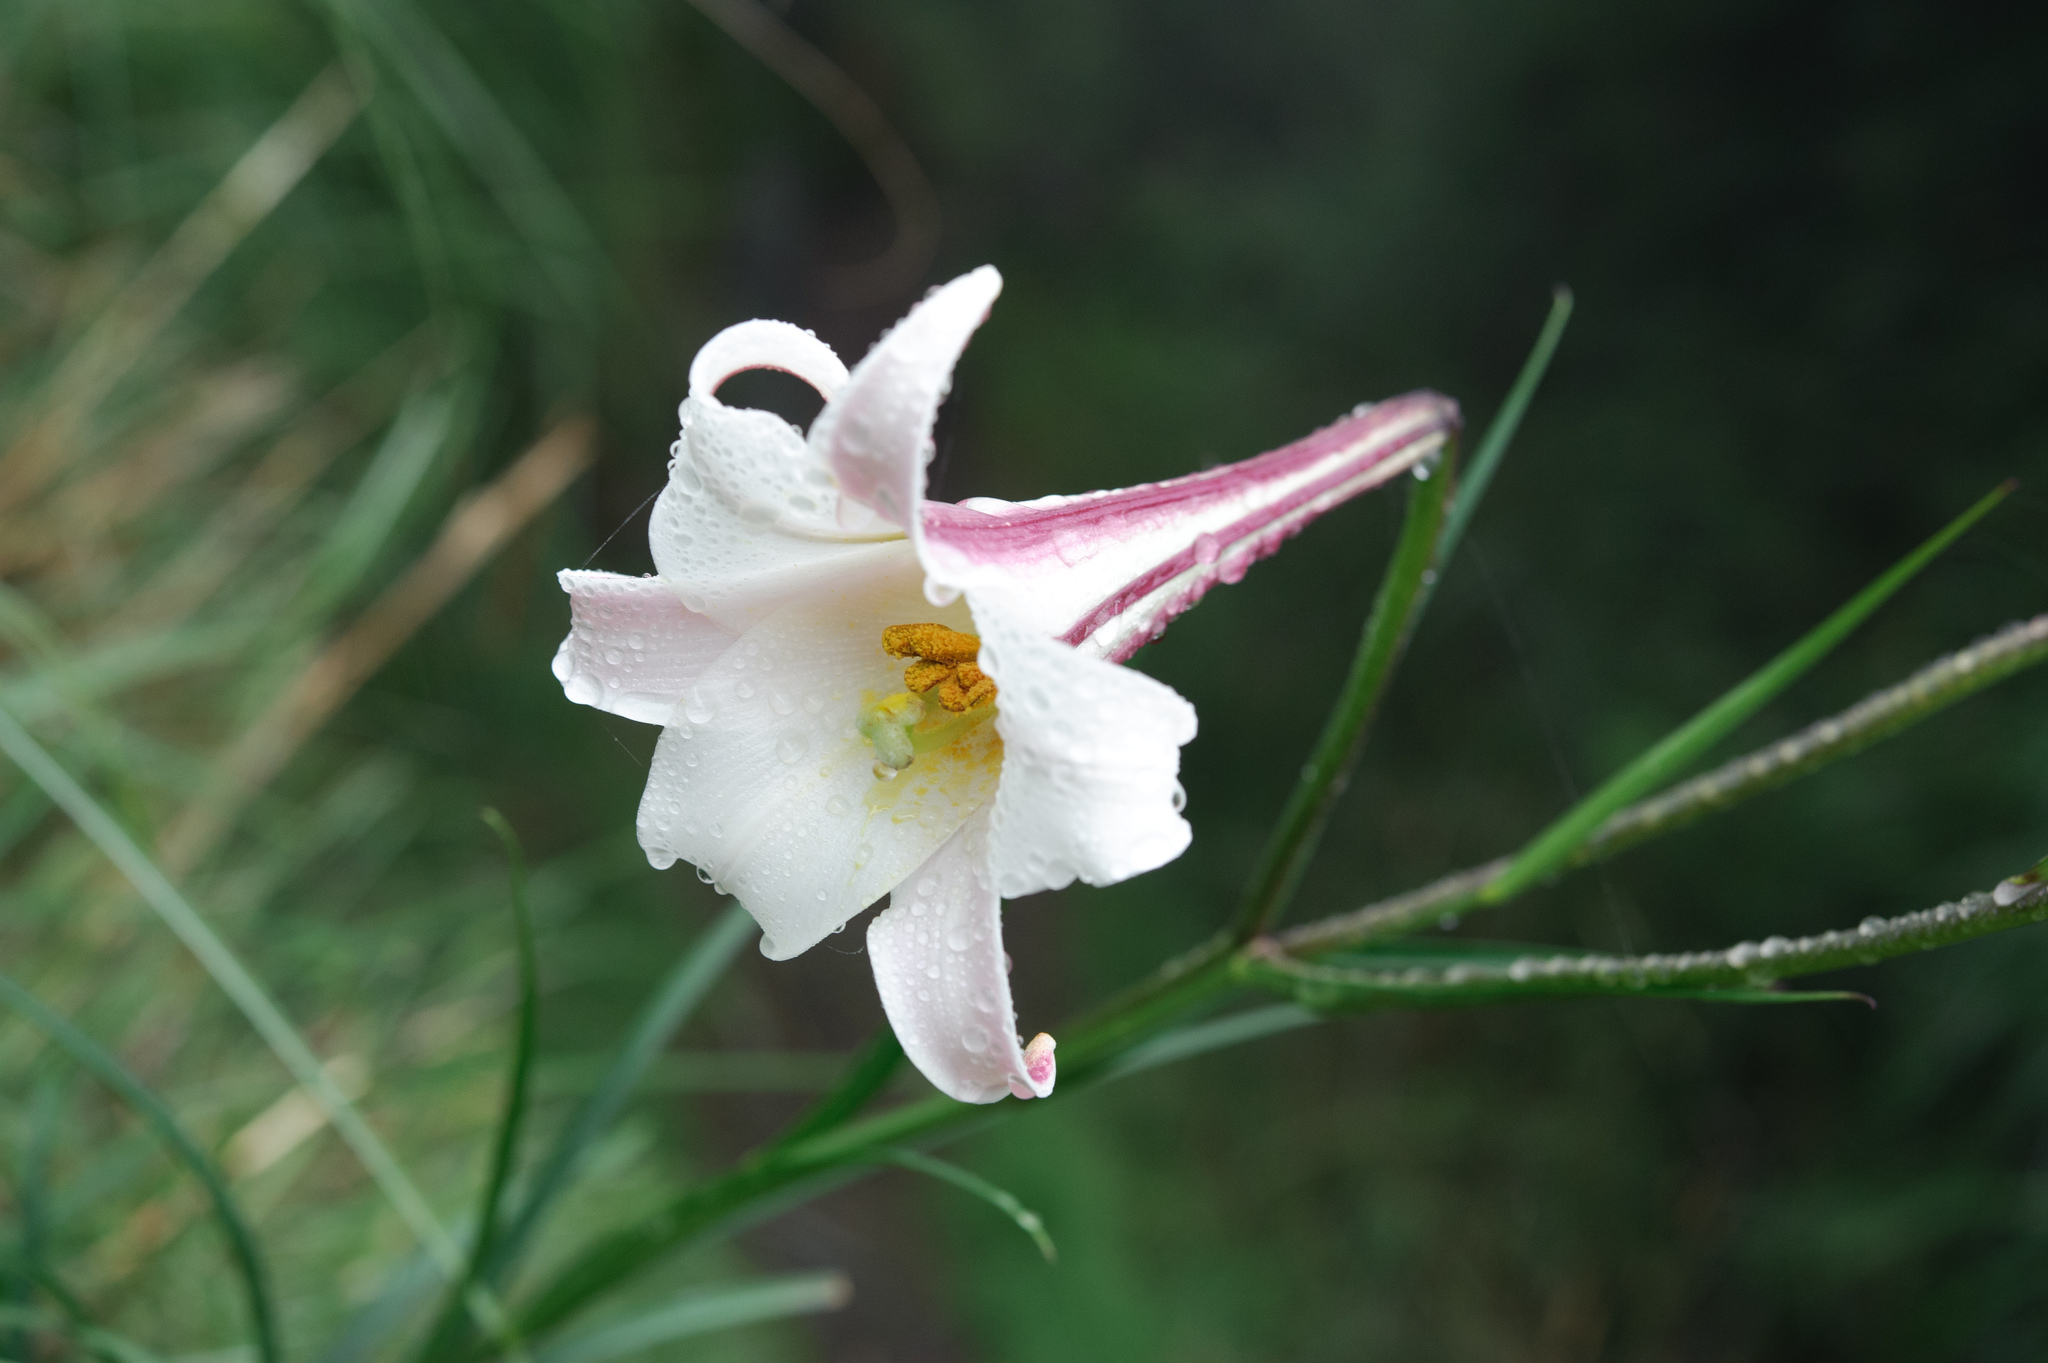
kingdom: Plantae
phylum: Tracheophyta
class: Liliopsida
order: Liliales
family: Liliaceae
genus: Lilium
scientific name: Lilium formosanum
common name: Formosa lily
